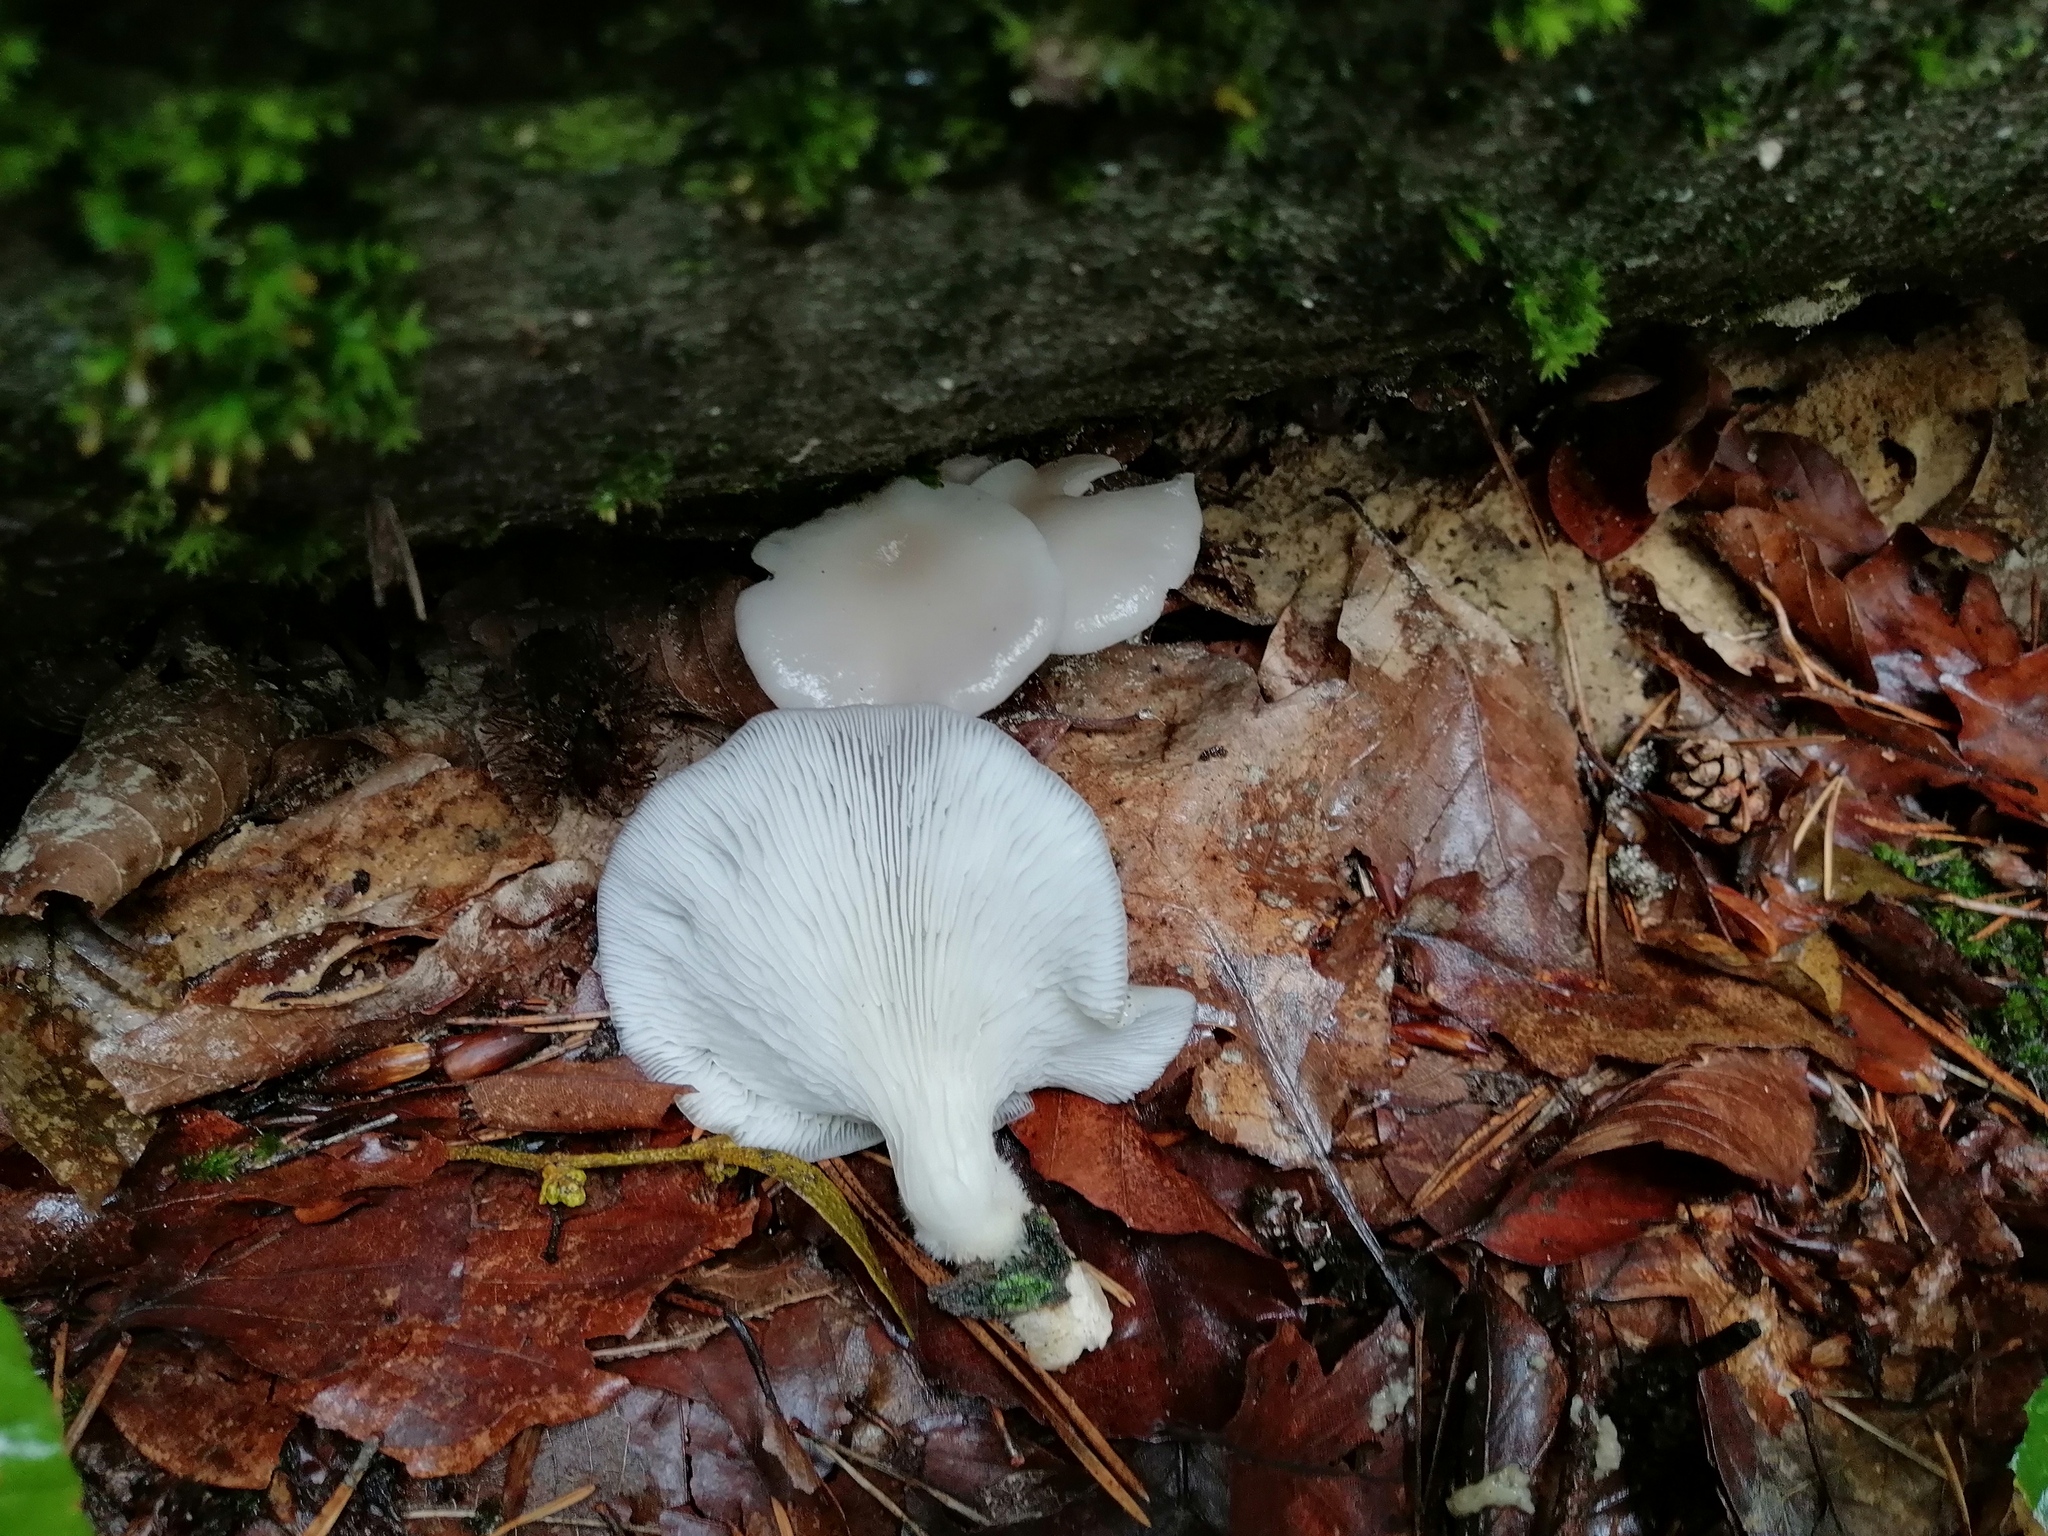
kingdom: Fungi
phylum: Basidiomycota
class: Agaricomycetes
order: Agaricales
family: Pleurotaceae
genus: Pleurotus
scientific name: Pleurotus pulmonarius
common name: Pale oyster
